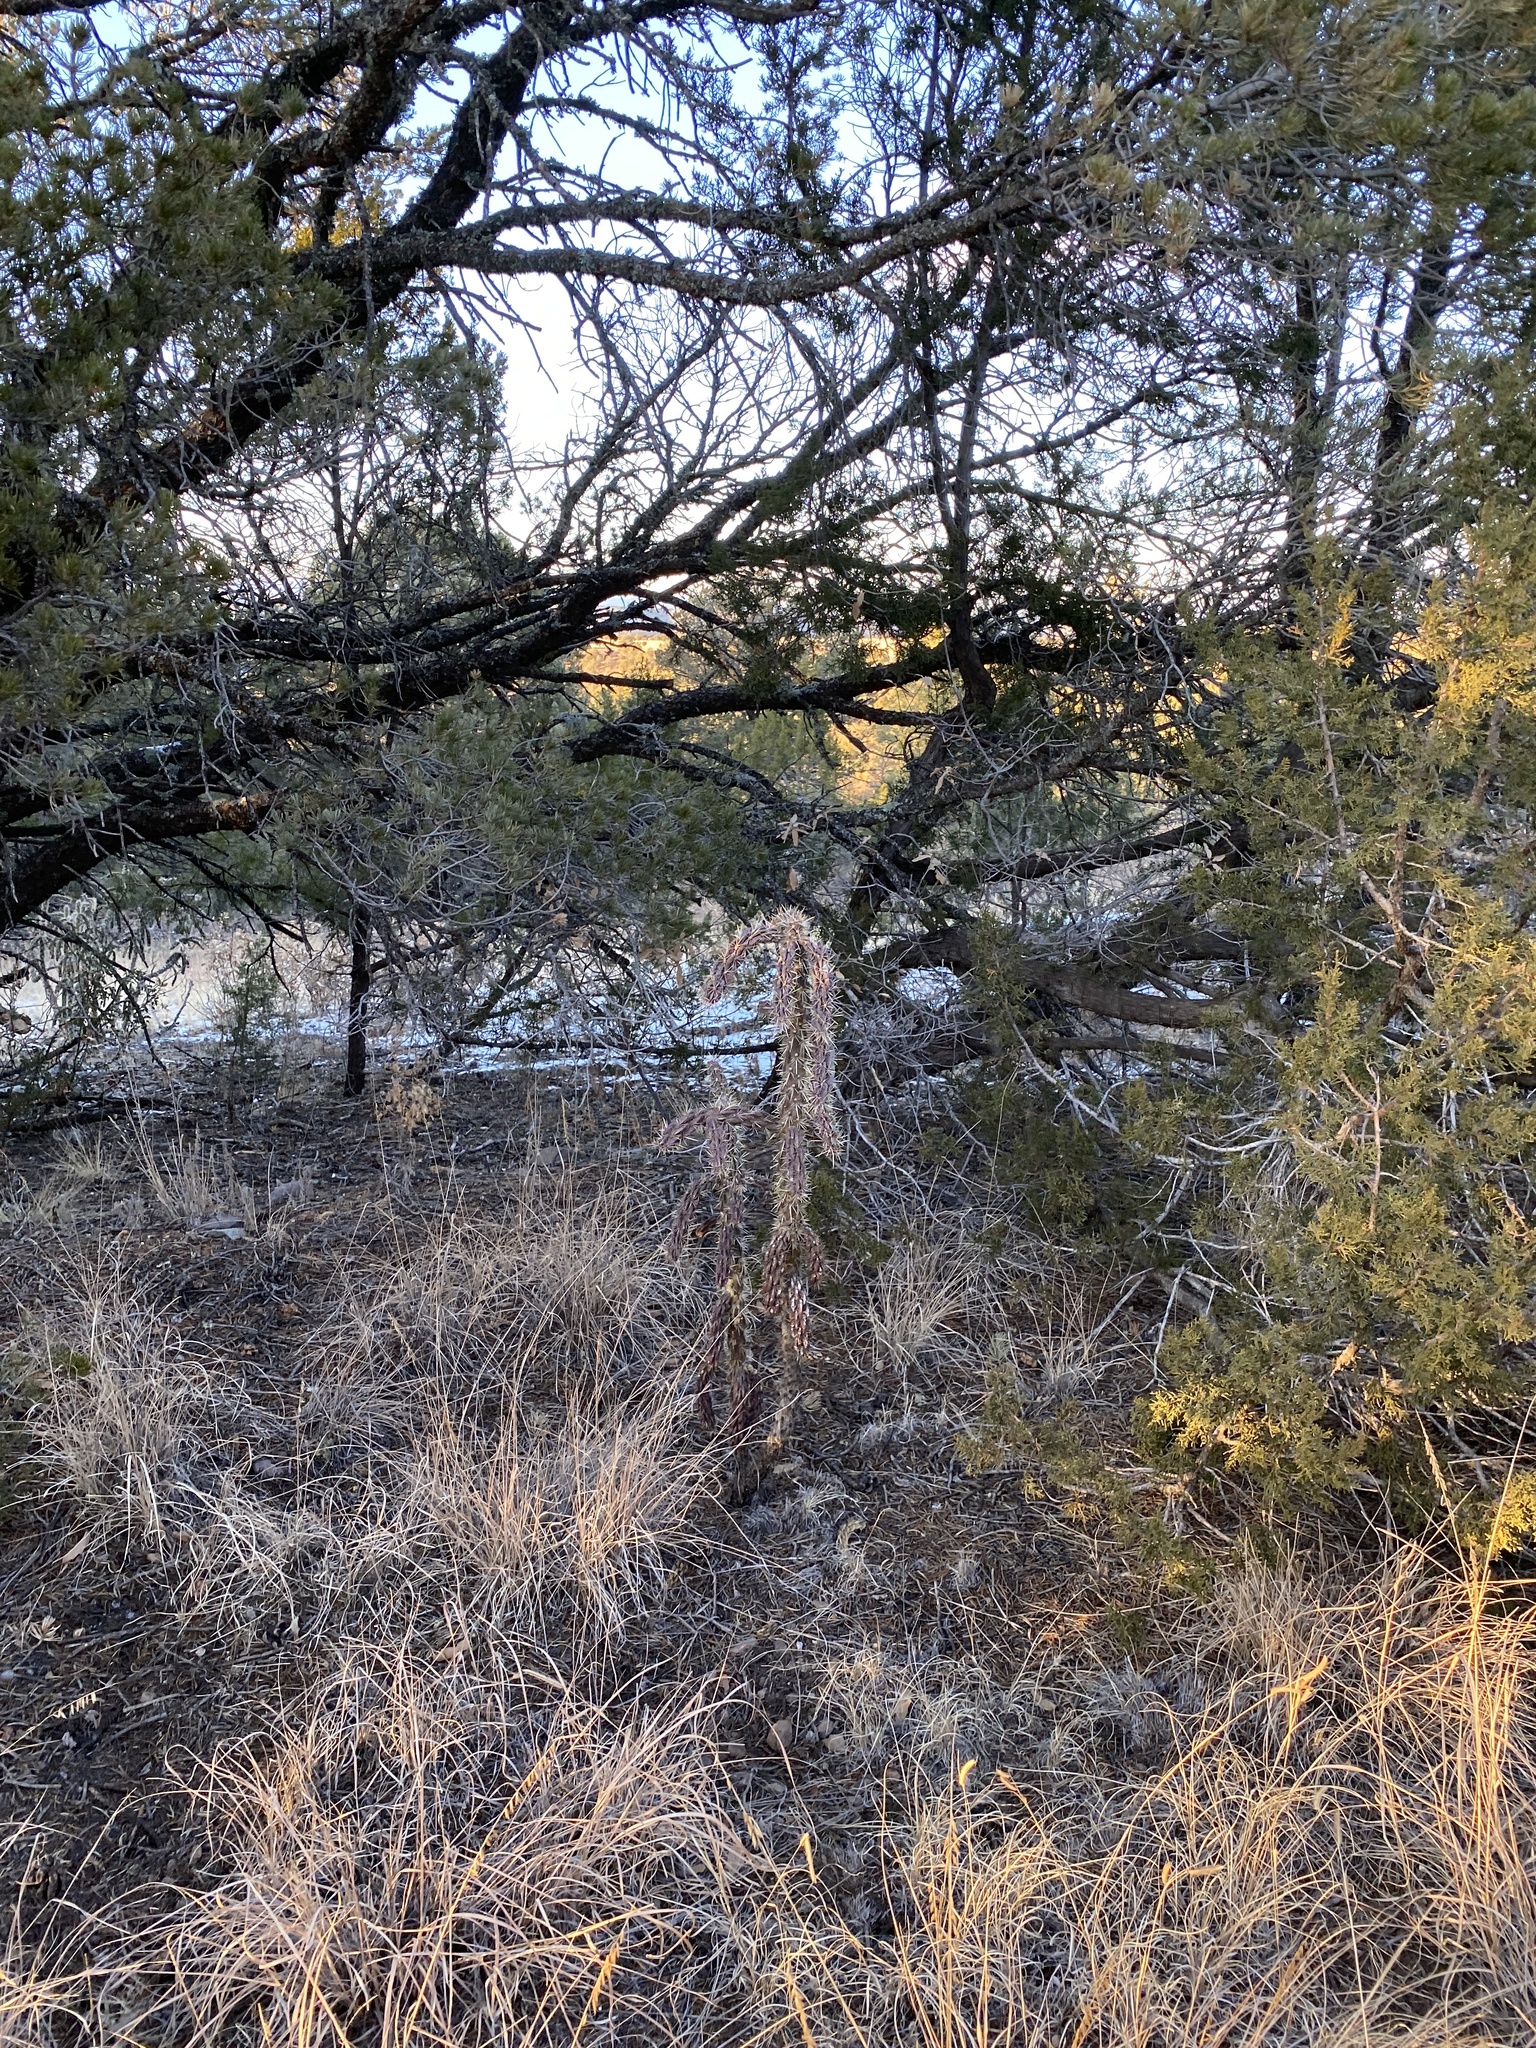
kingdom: Plantae
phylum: Tracheophyta
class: Magnoliopsida
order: Caryophyllales
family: Cactaceae
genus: Cylindropuntia
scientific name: Cylindropuntia imbricata
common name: Candelabrum cactus
